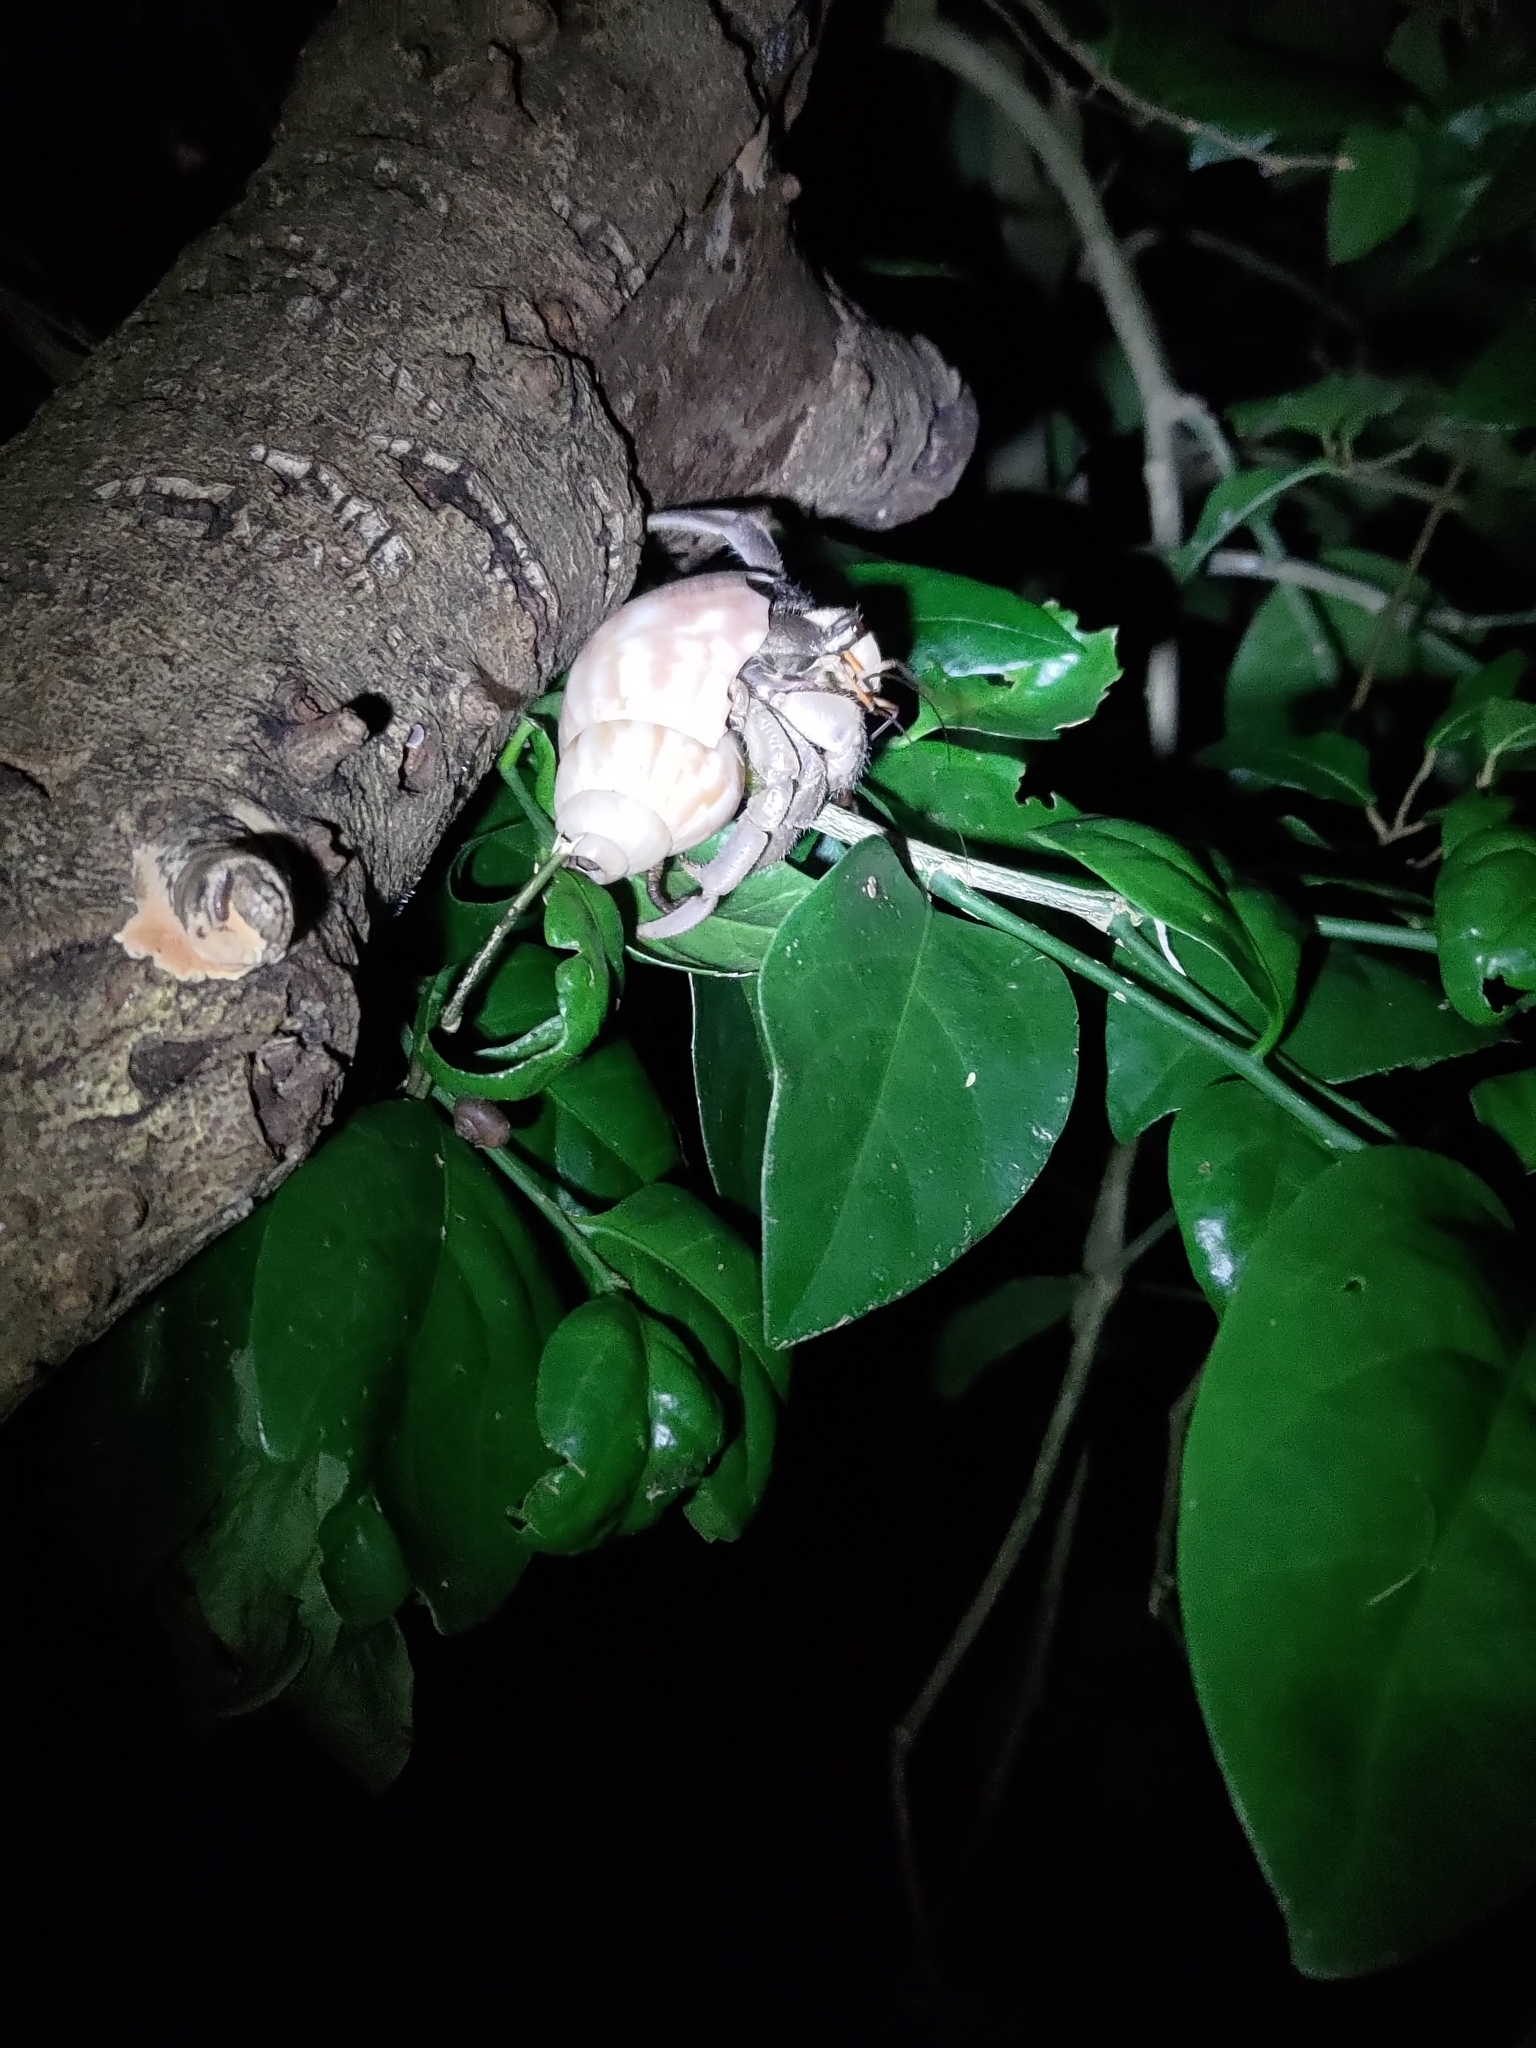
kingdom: Animalia
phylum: Arthropoda
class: Malacostraca
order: Decapoda
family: Coenobitidae
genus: Coenobita
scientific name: Coenobita cavipes
